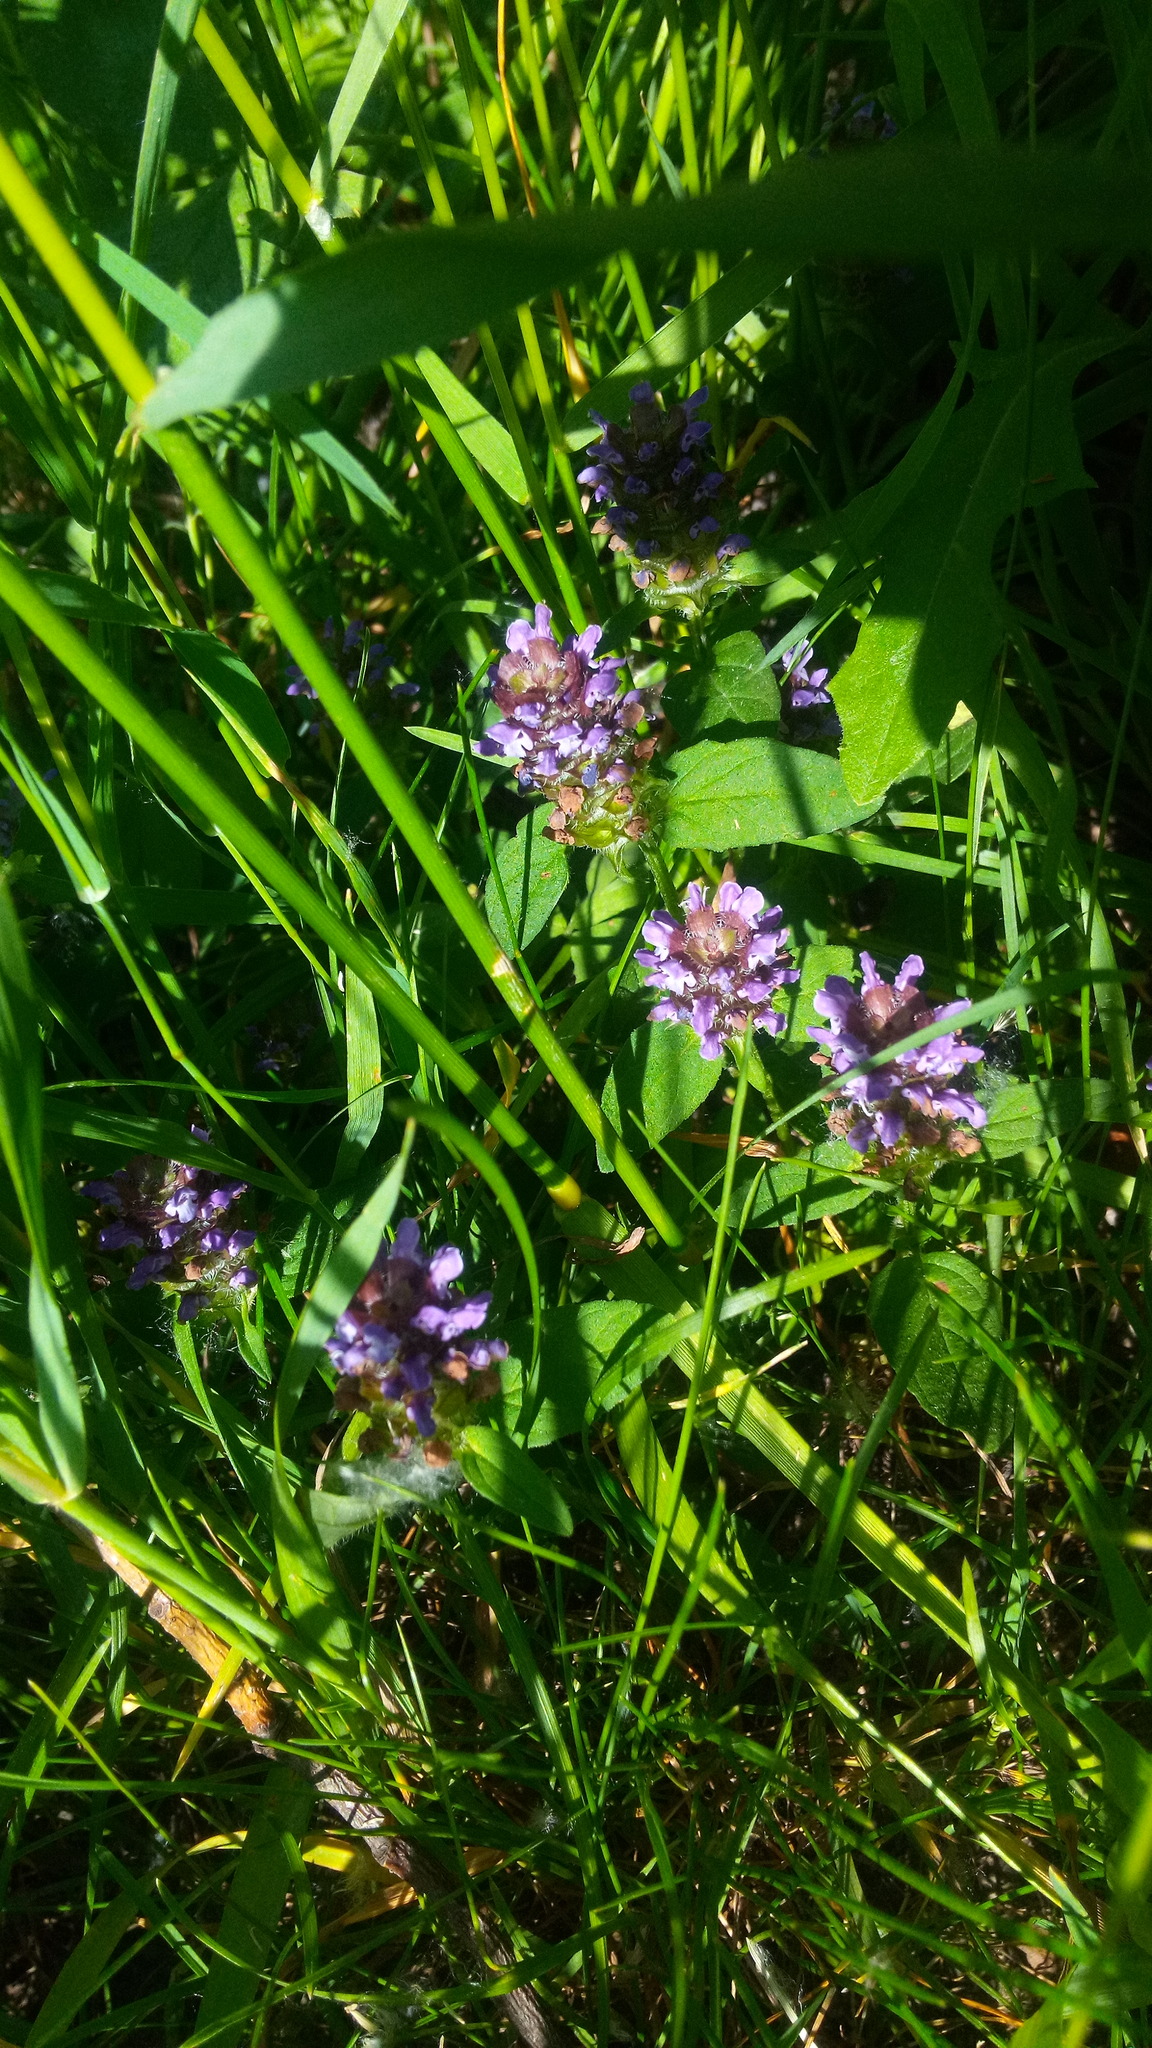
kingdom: Plantae
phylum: Tracheophyta
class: Magnoliopsida
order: Lamiales
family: Lamiaceae
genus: Prunella
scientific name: Prunella vulgaris
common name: Heal-all
